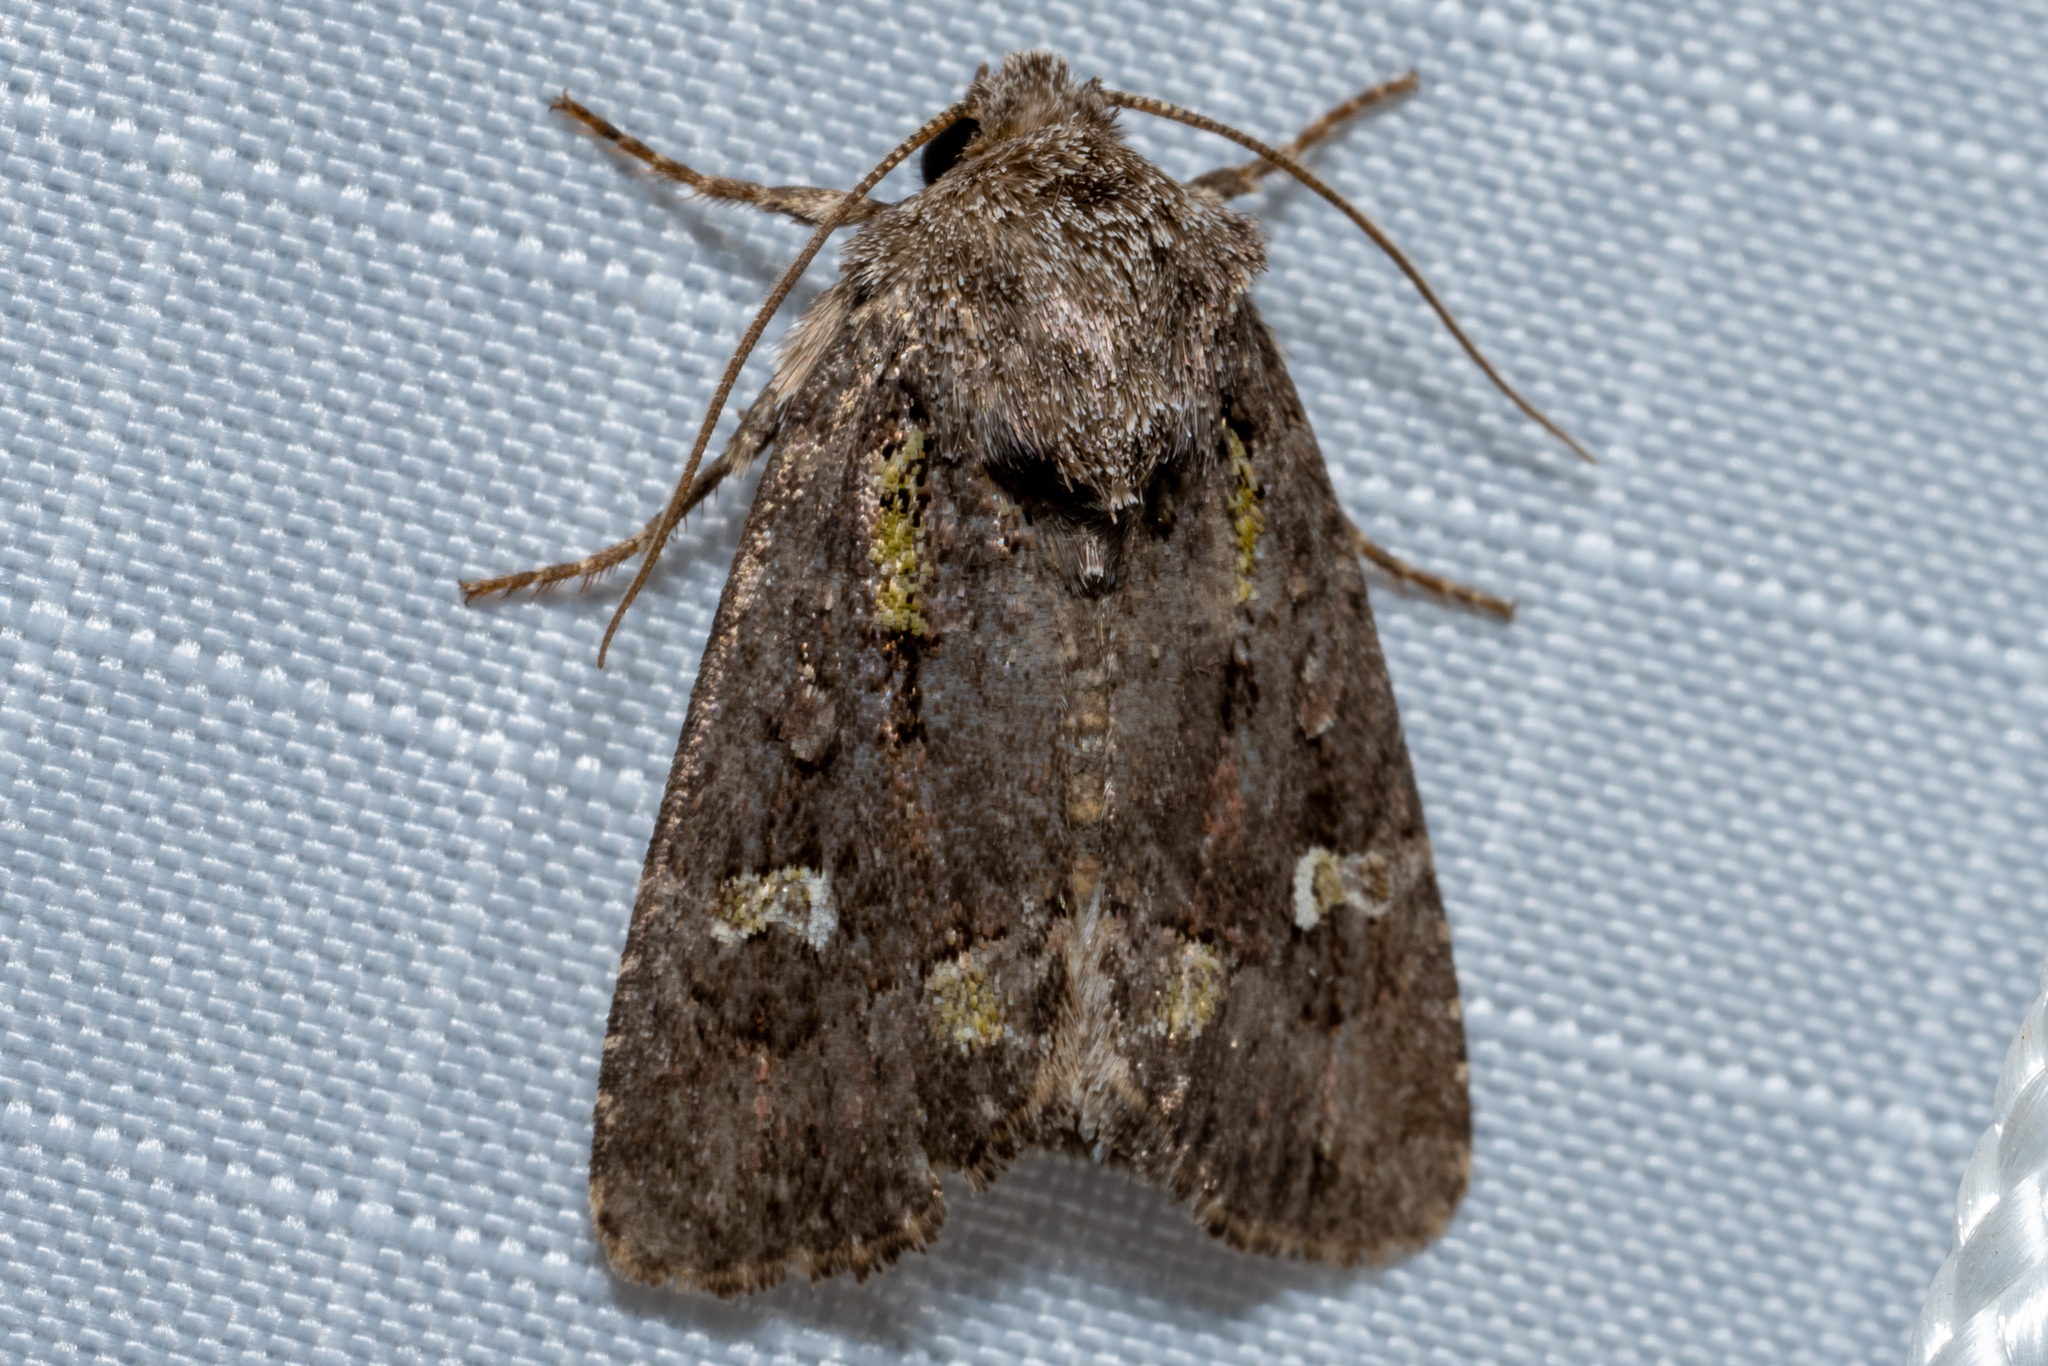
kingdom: Animalia
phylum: Arthropoda
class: Insecta
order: Lepidoptera
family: Noctuidae
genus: Lacinipolia
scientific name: Lacinipolia renigera
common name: Kidney-spotted minor
